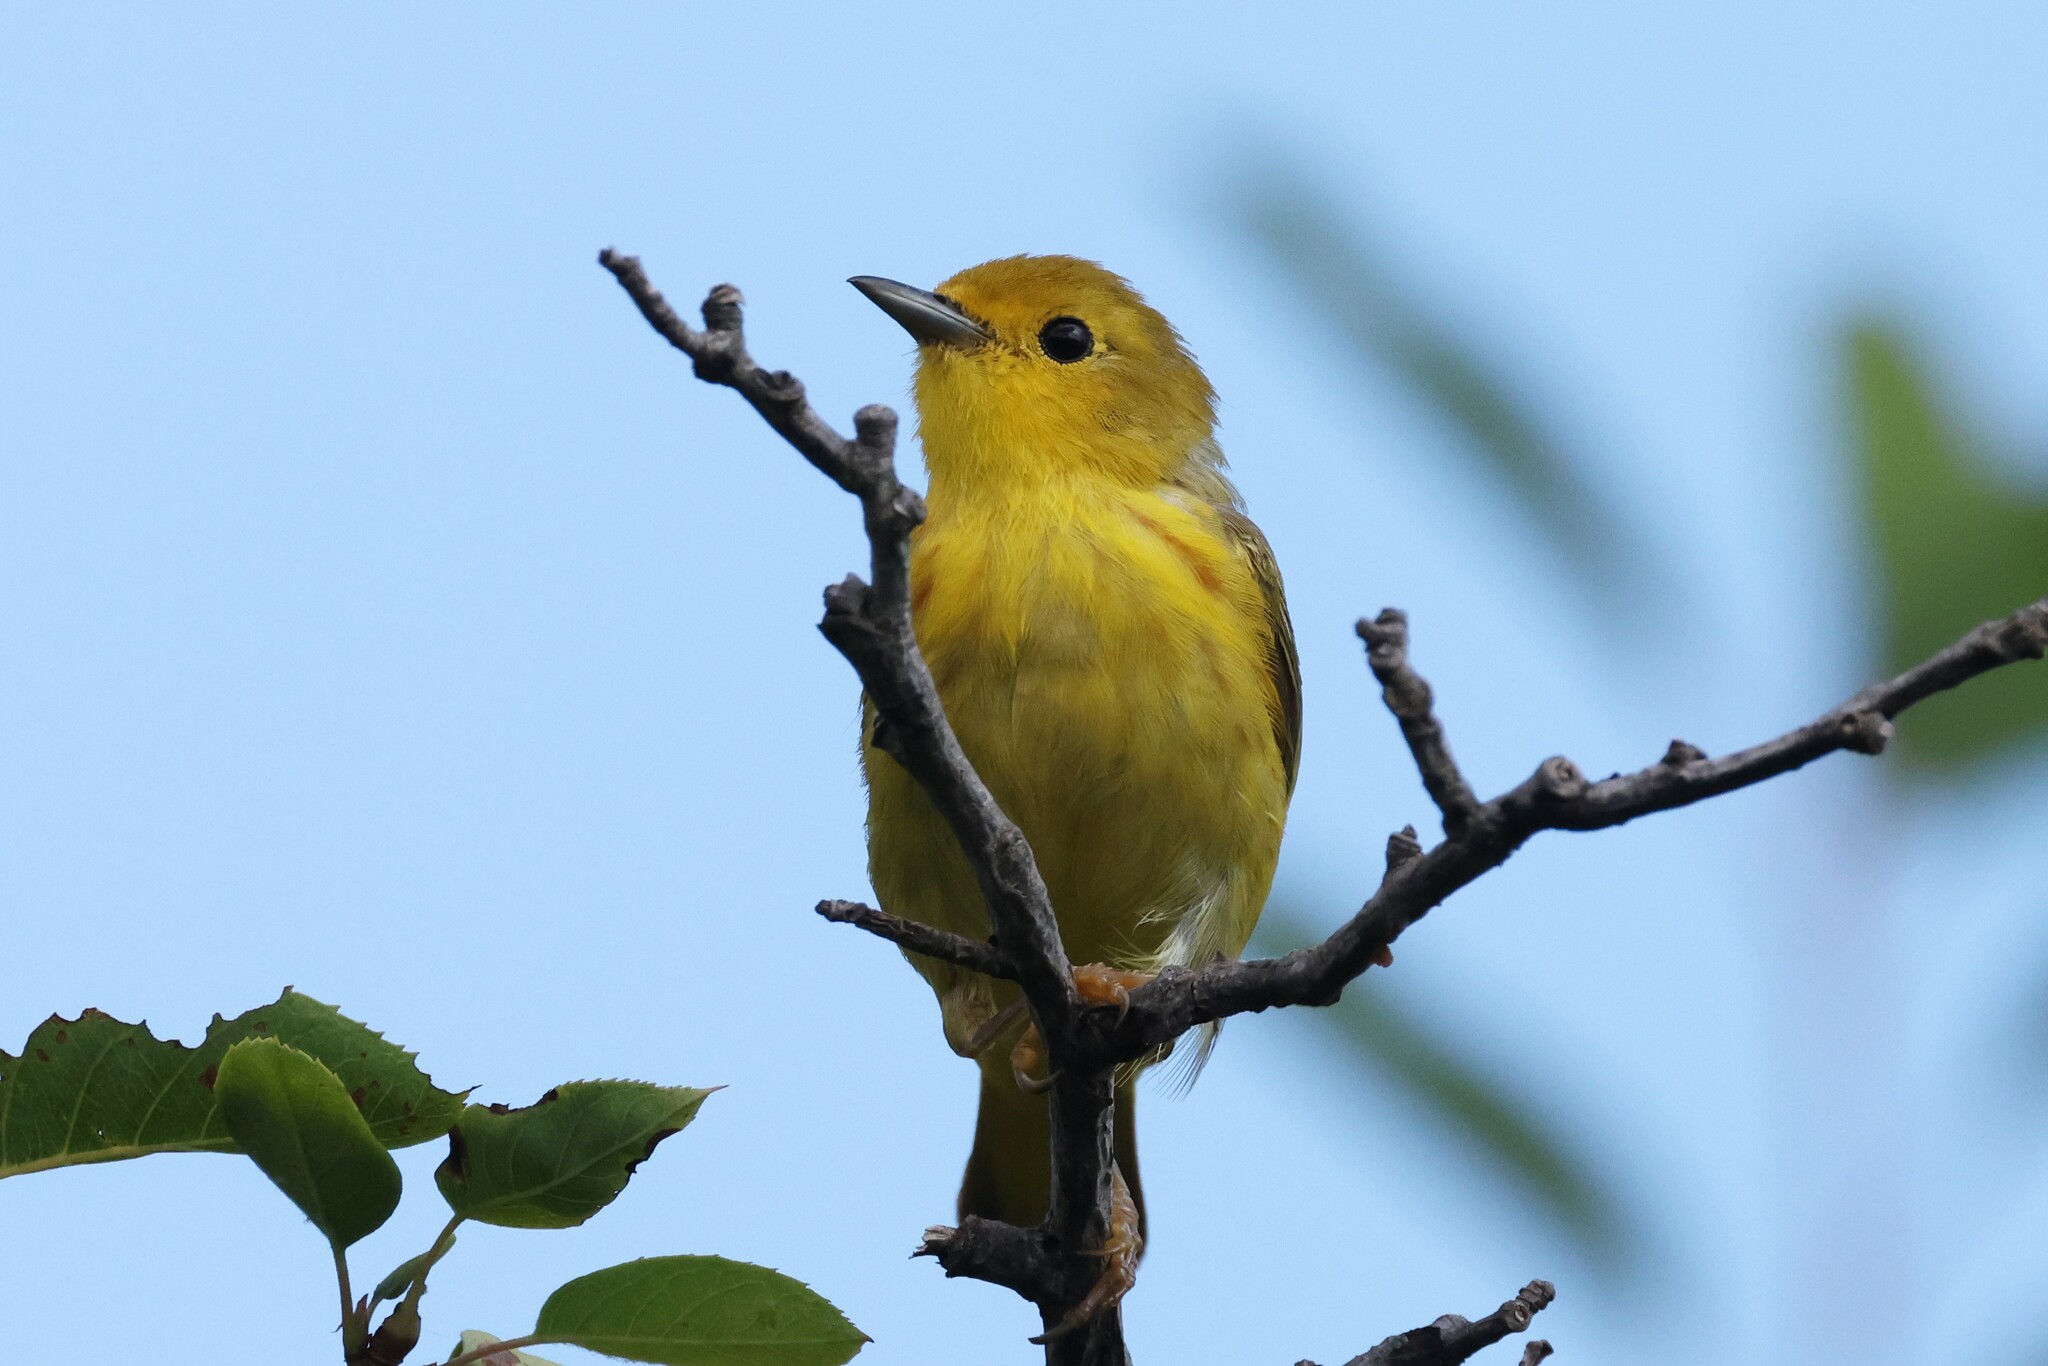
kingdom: Animalia
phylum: Chordata
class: Aves
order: Passeriformes
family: Parulidae
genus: Setophaga
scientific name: Setophaga petechia
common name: Yellow warbler
